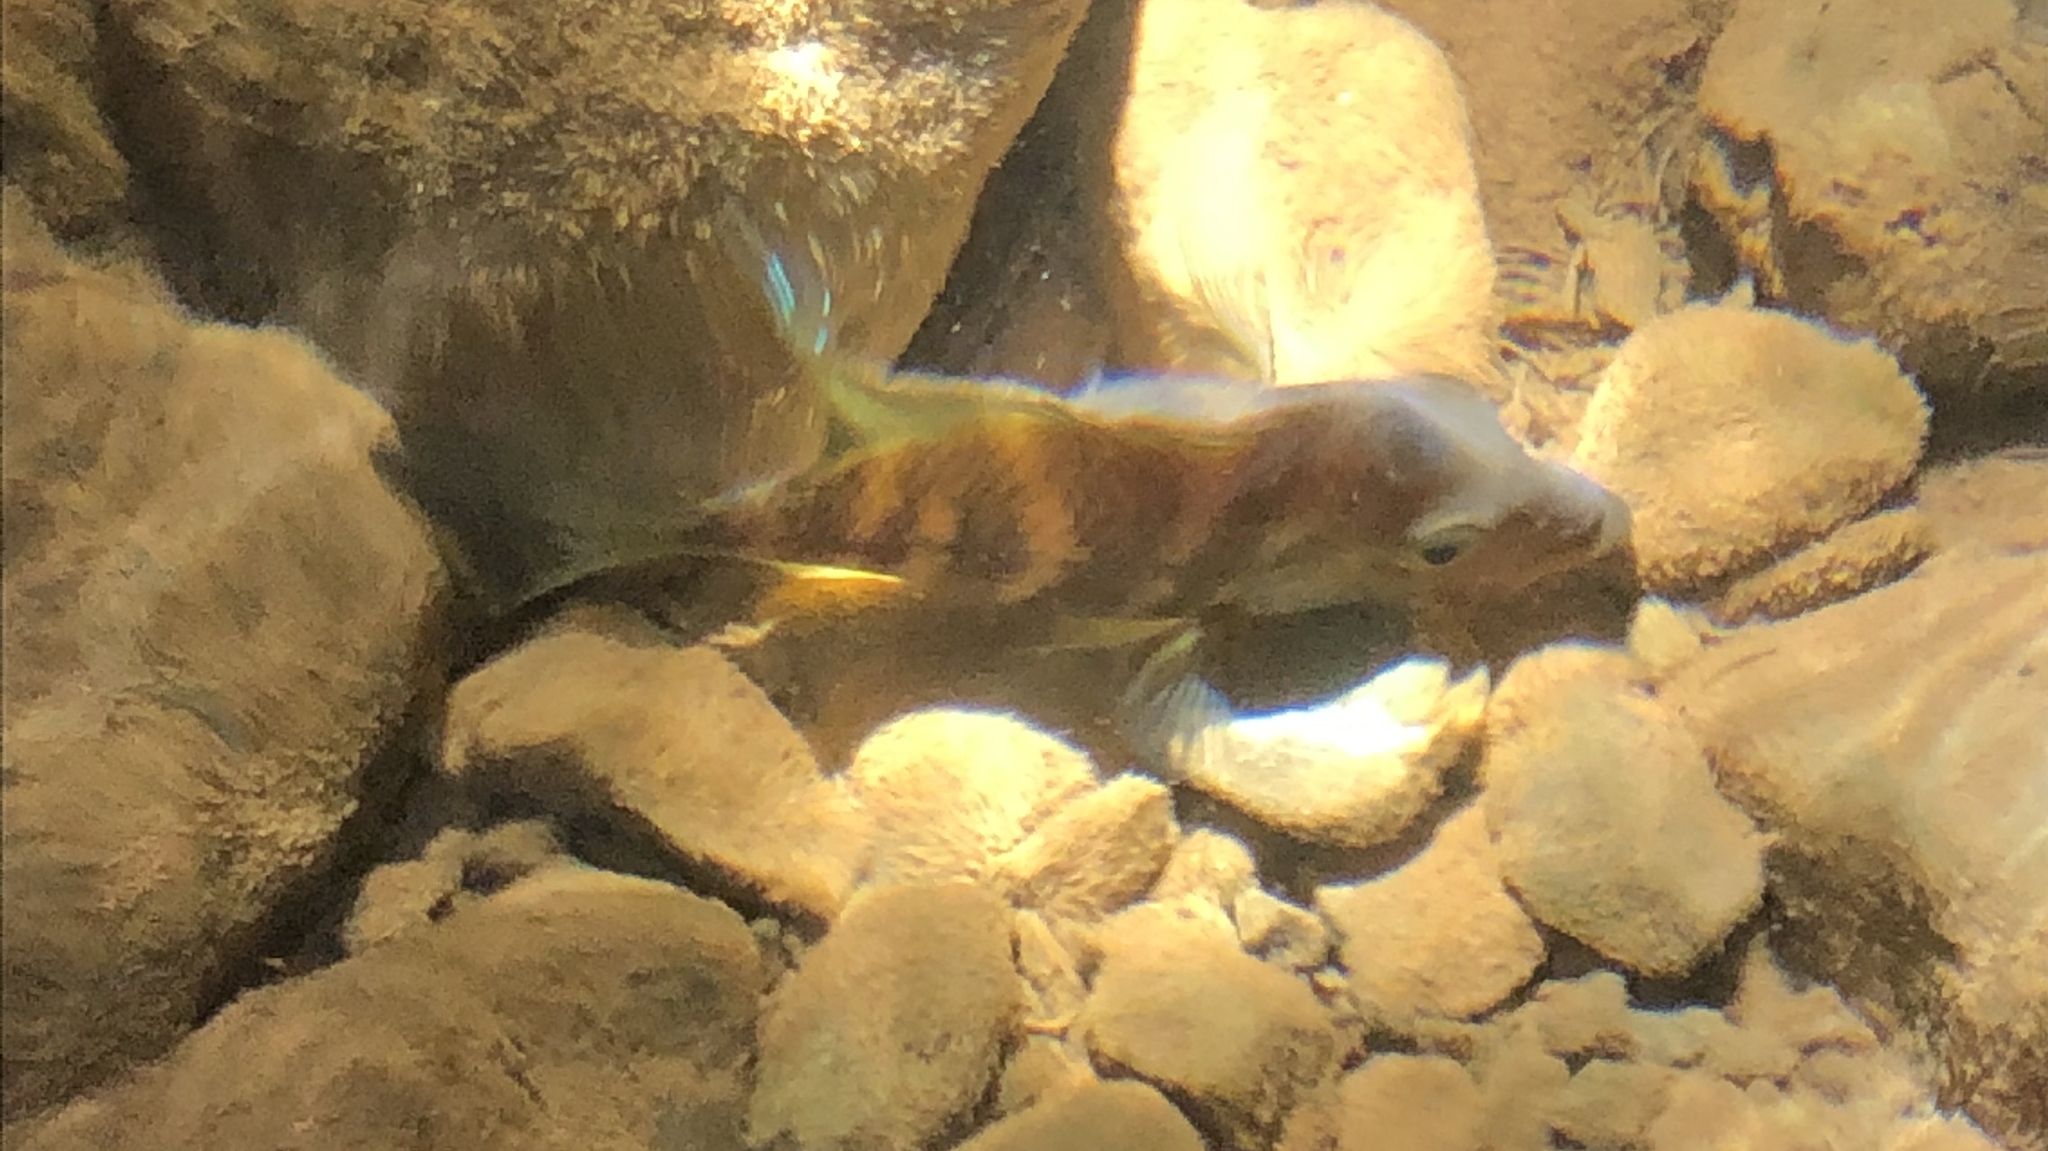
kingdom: Animalia
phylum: Chordata
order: Perciformes
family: Cichlidae
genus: Cribroheros
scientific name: Cribroheros diquis
